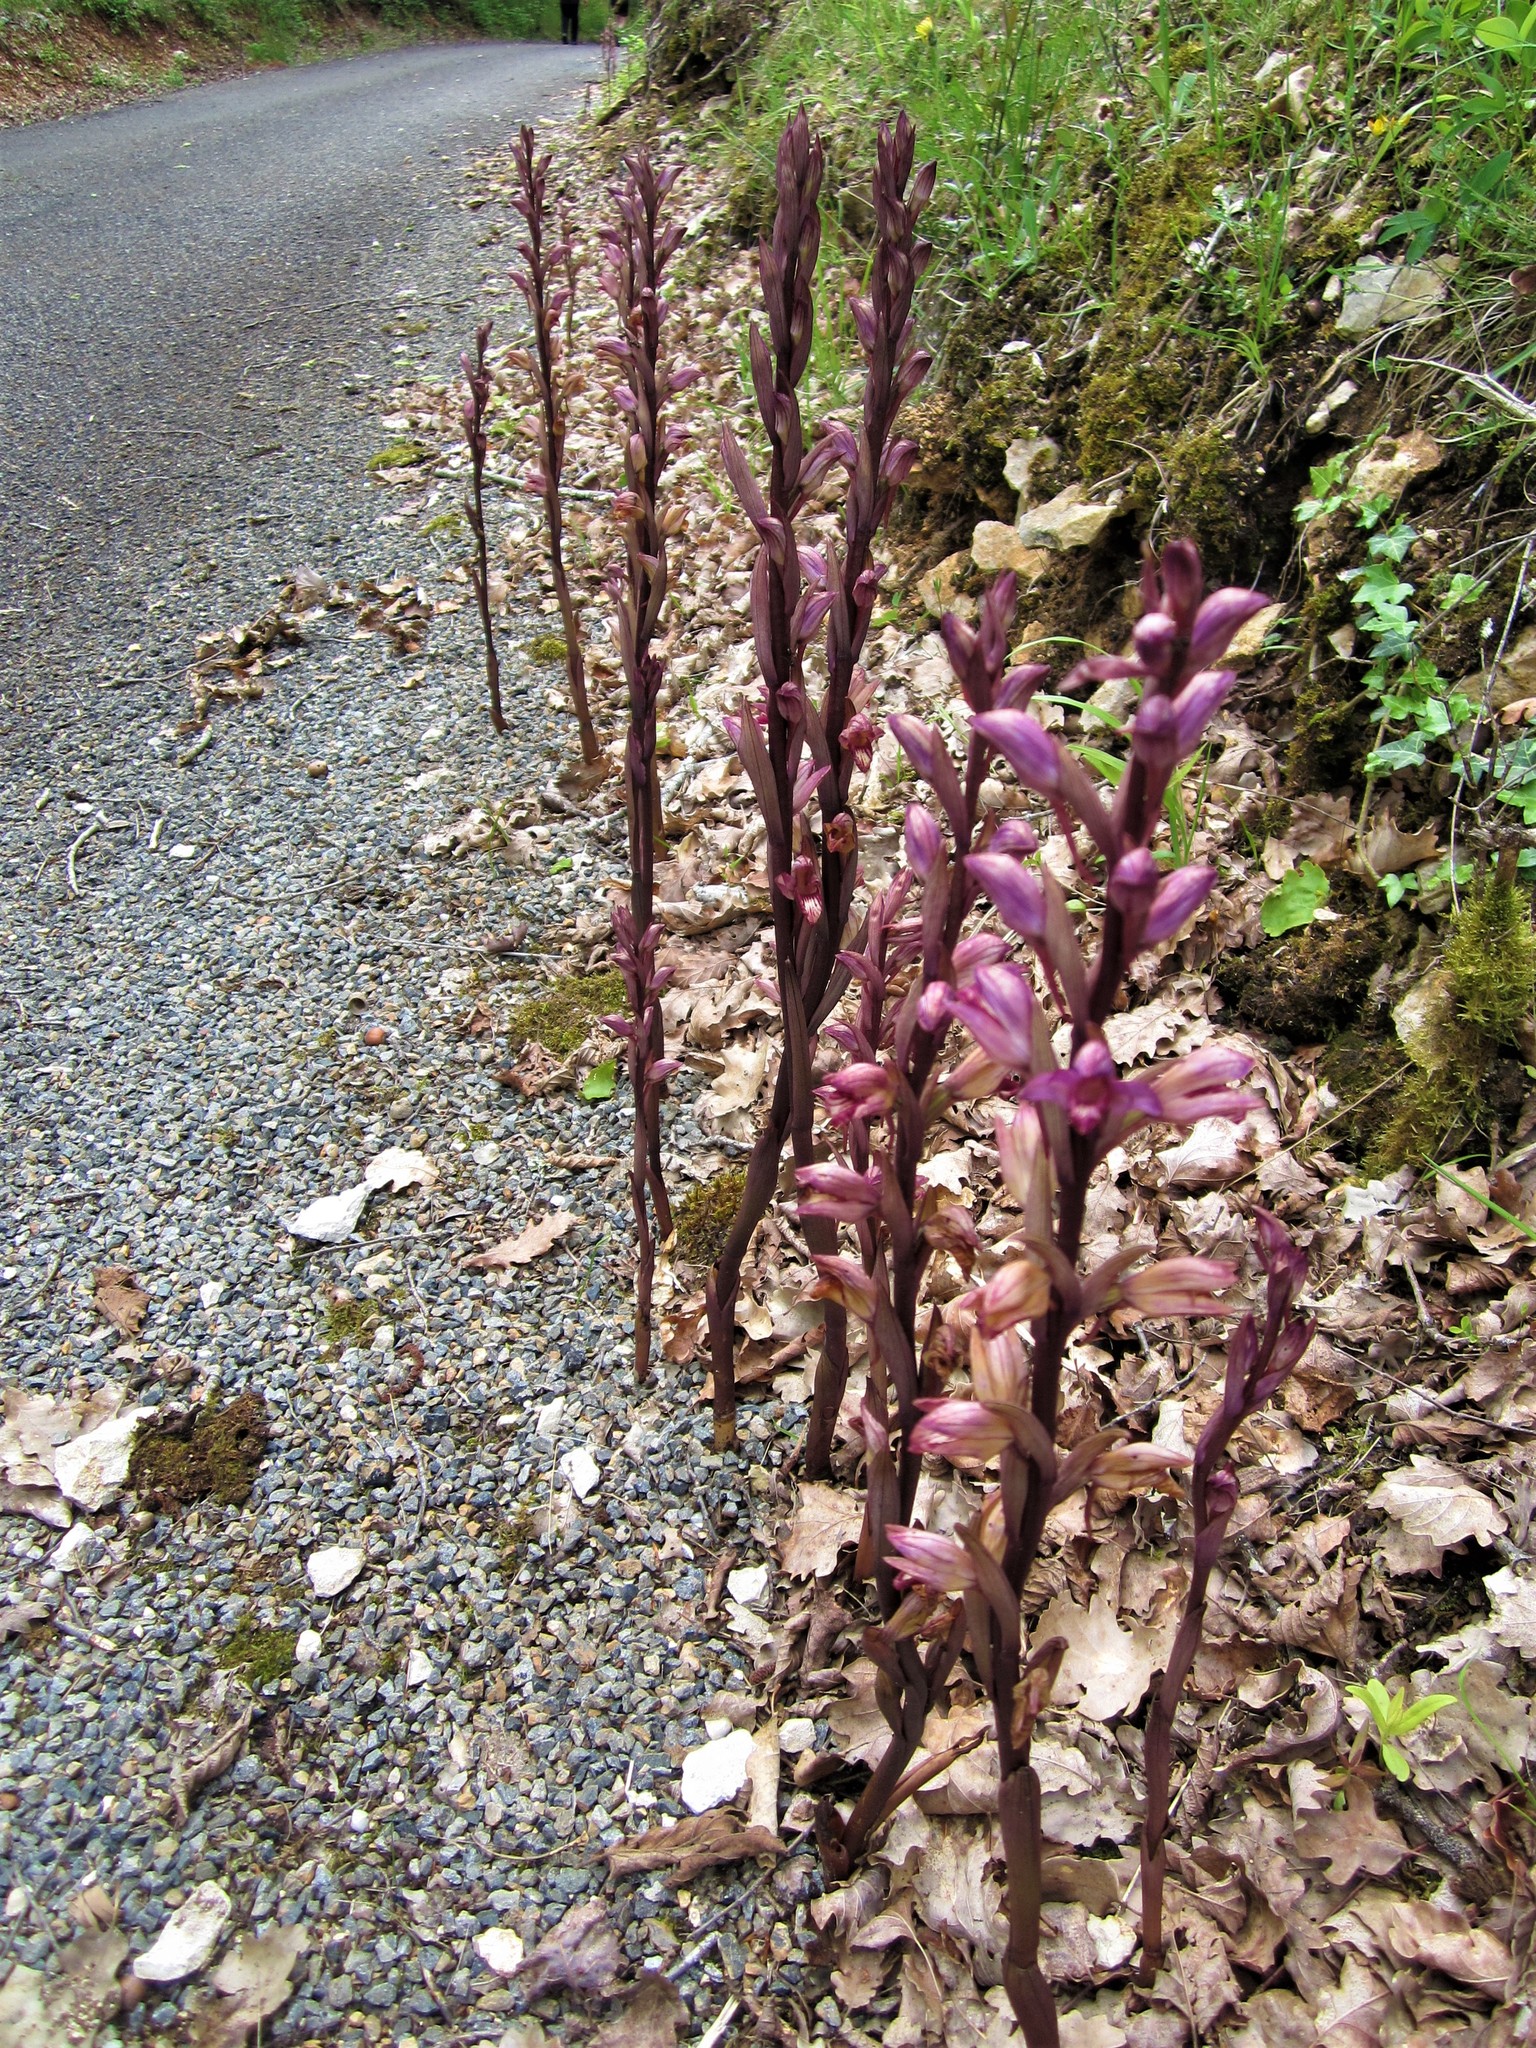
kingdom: Plantae
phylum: Tracheophyta
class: Liliopsida
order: Asparagales
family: Orchidaceae
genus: Limodorum
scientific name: Limodorum abortivum
